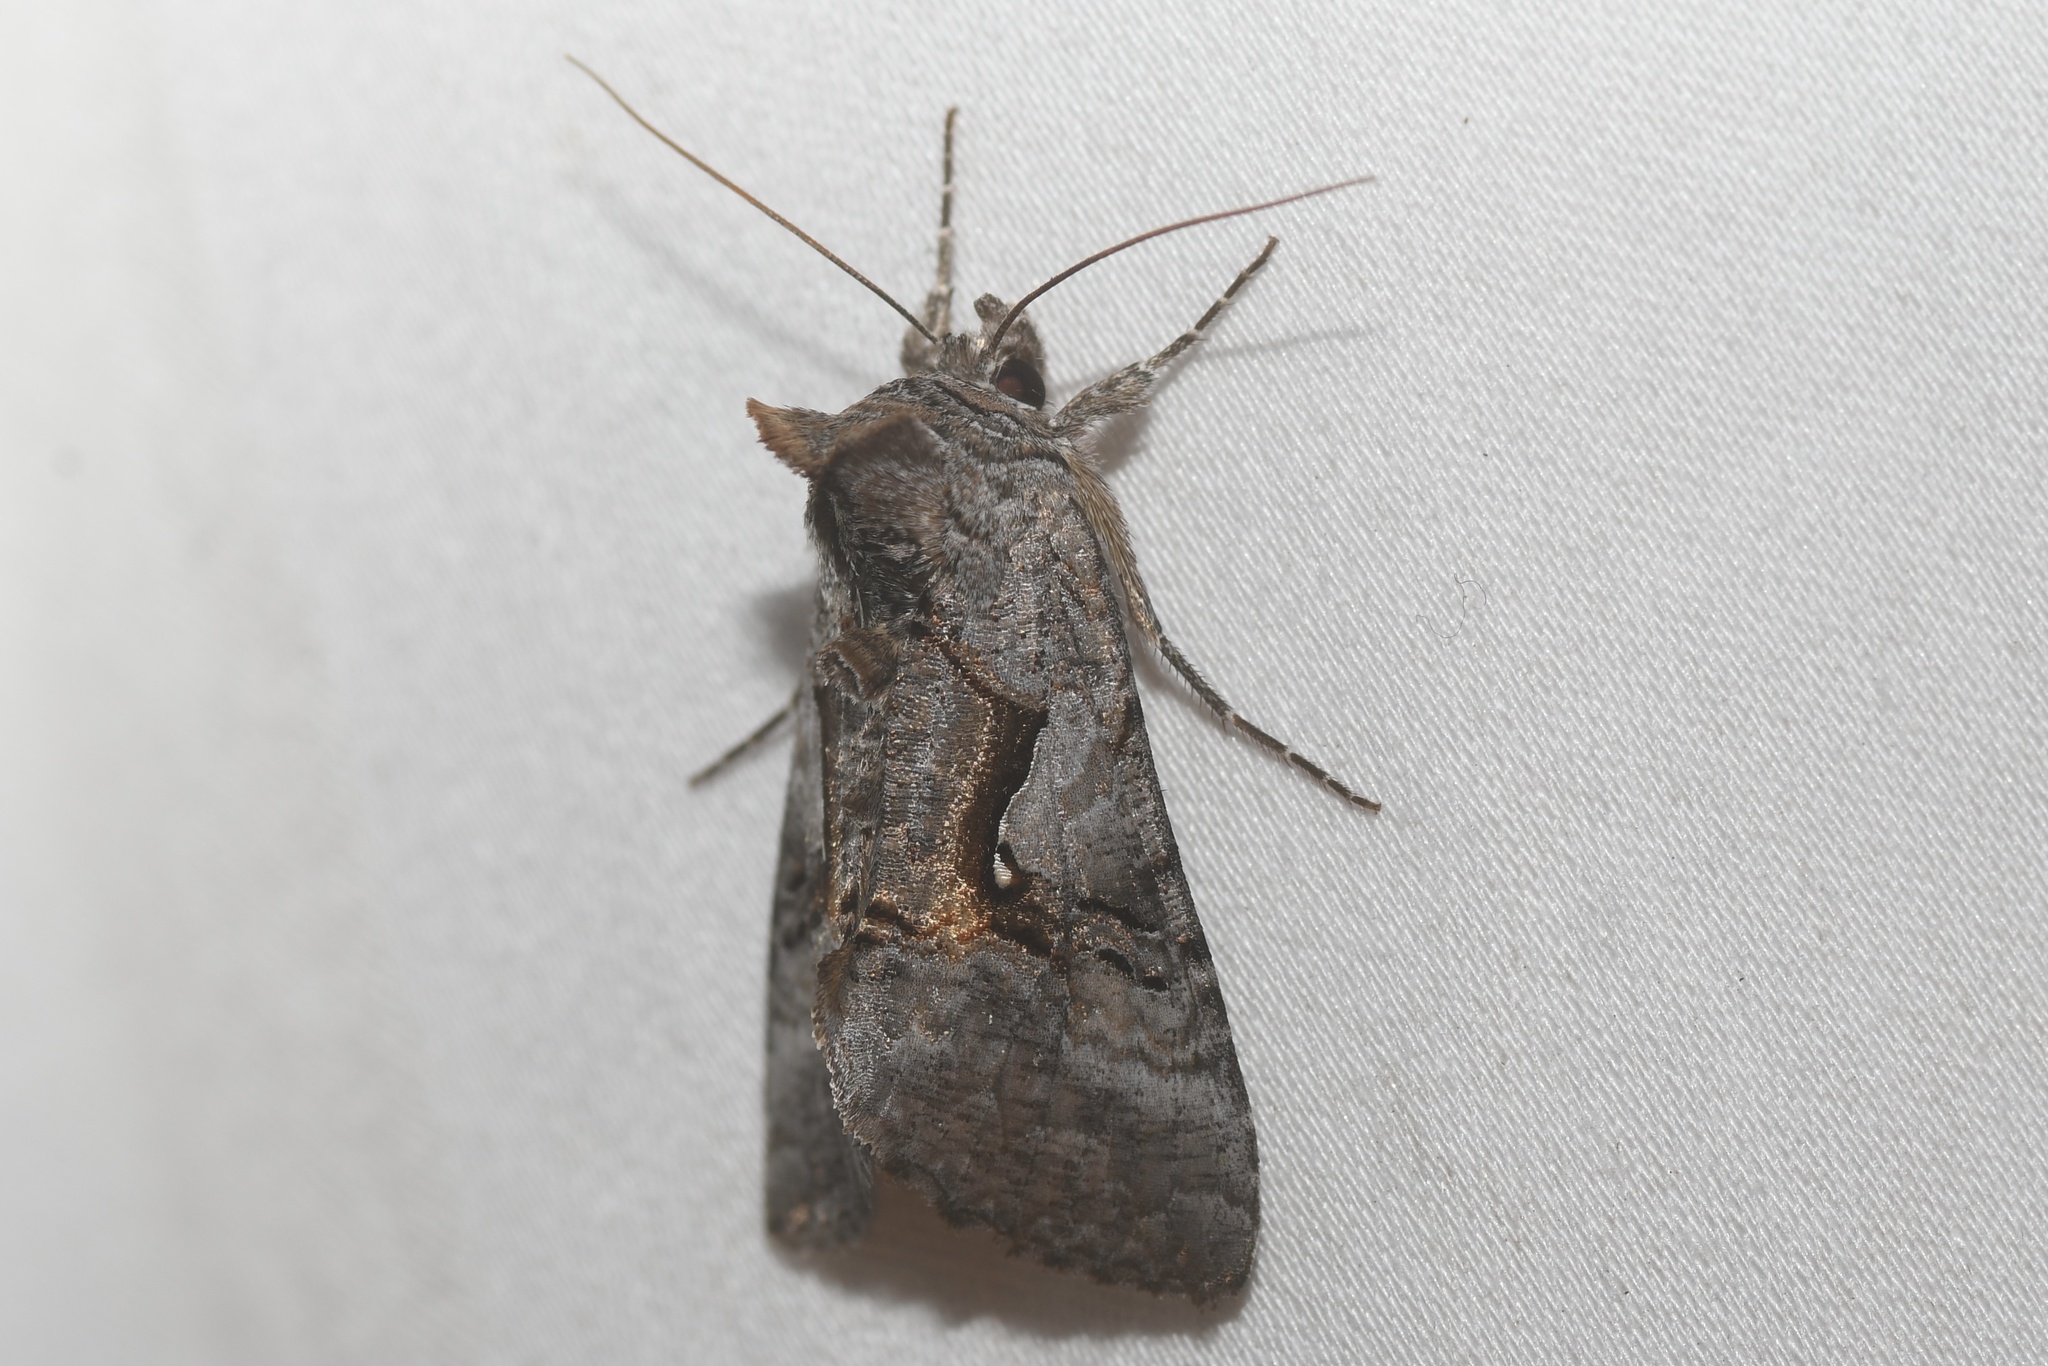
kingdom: Animalia
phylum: Arthropoda
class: Insecta
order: Lepidoptera
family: Noctuidae
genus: Syngrapha
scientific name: Syngrapha epigaea
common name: Epigaea looper moth
